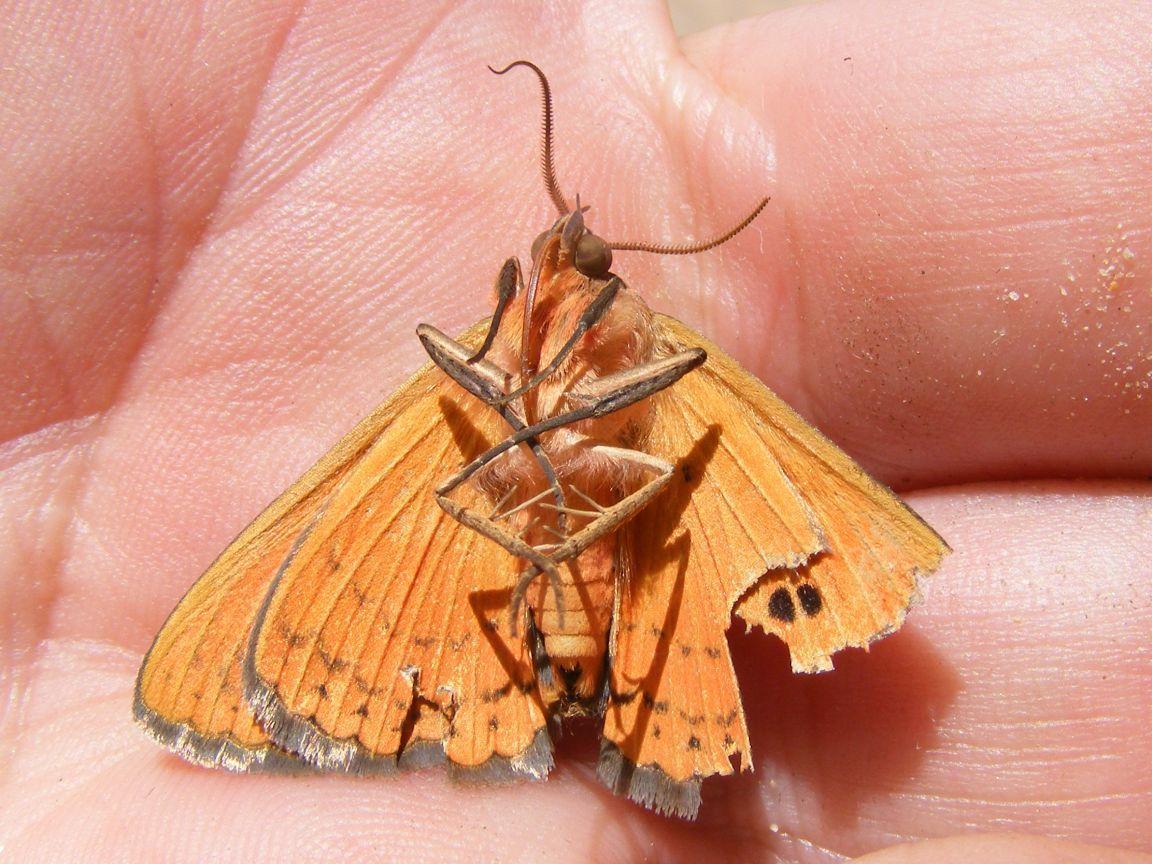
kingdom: Animalia
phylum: Arthropoda
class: Insecta
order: Lepidoptera
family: Erebidae
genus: Calliodes
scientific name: Calliodes pretiosissima
